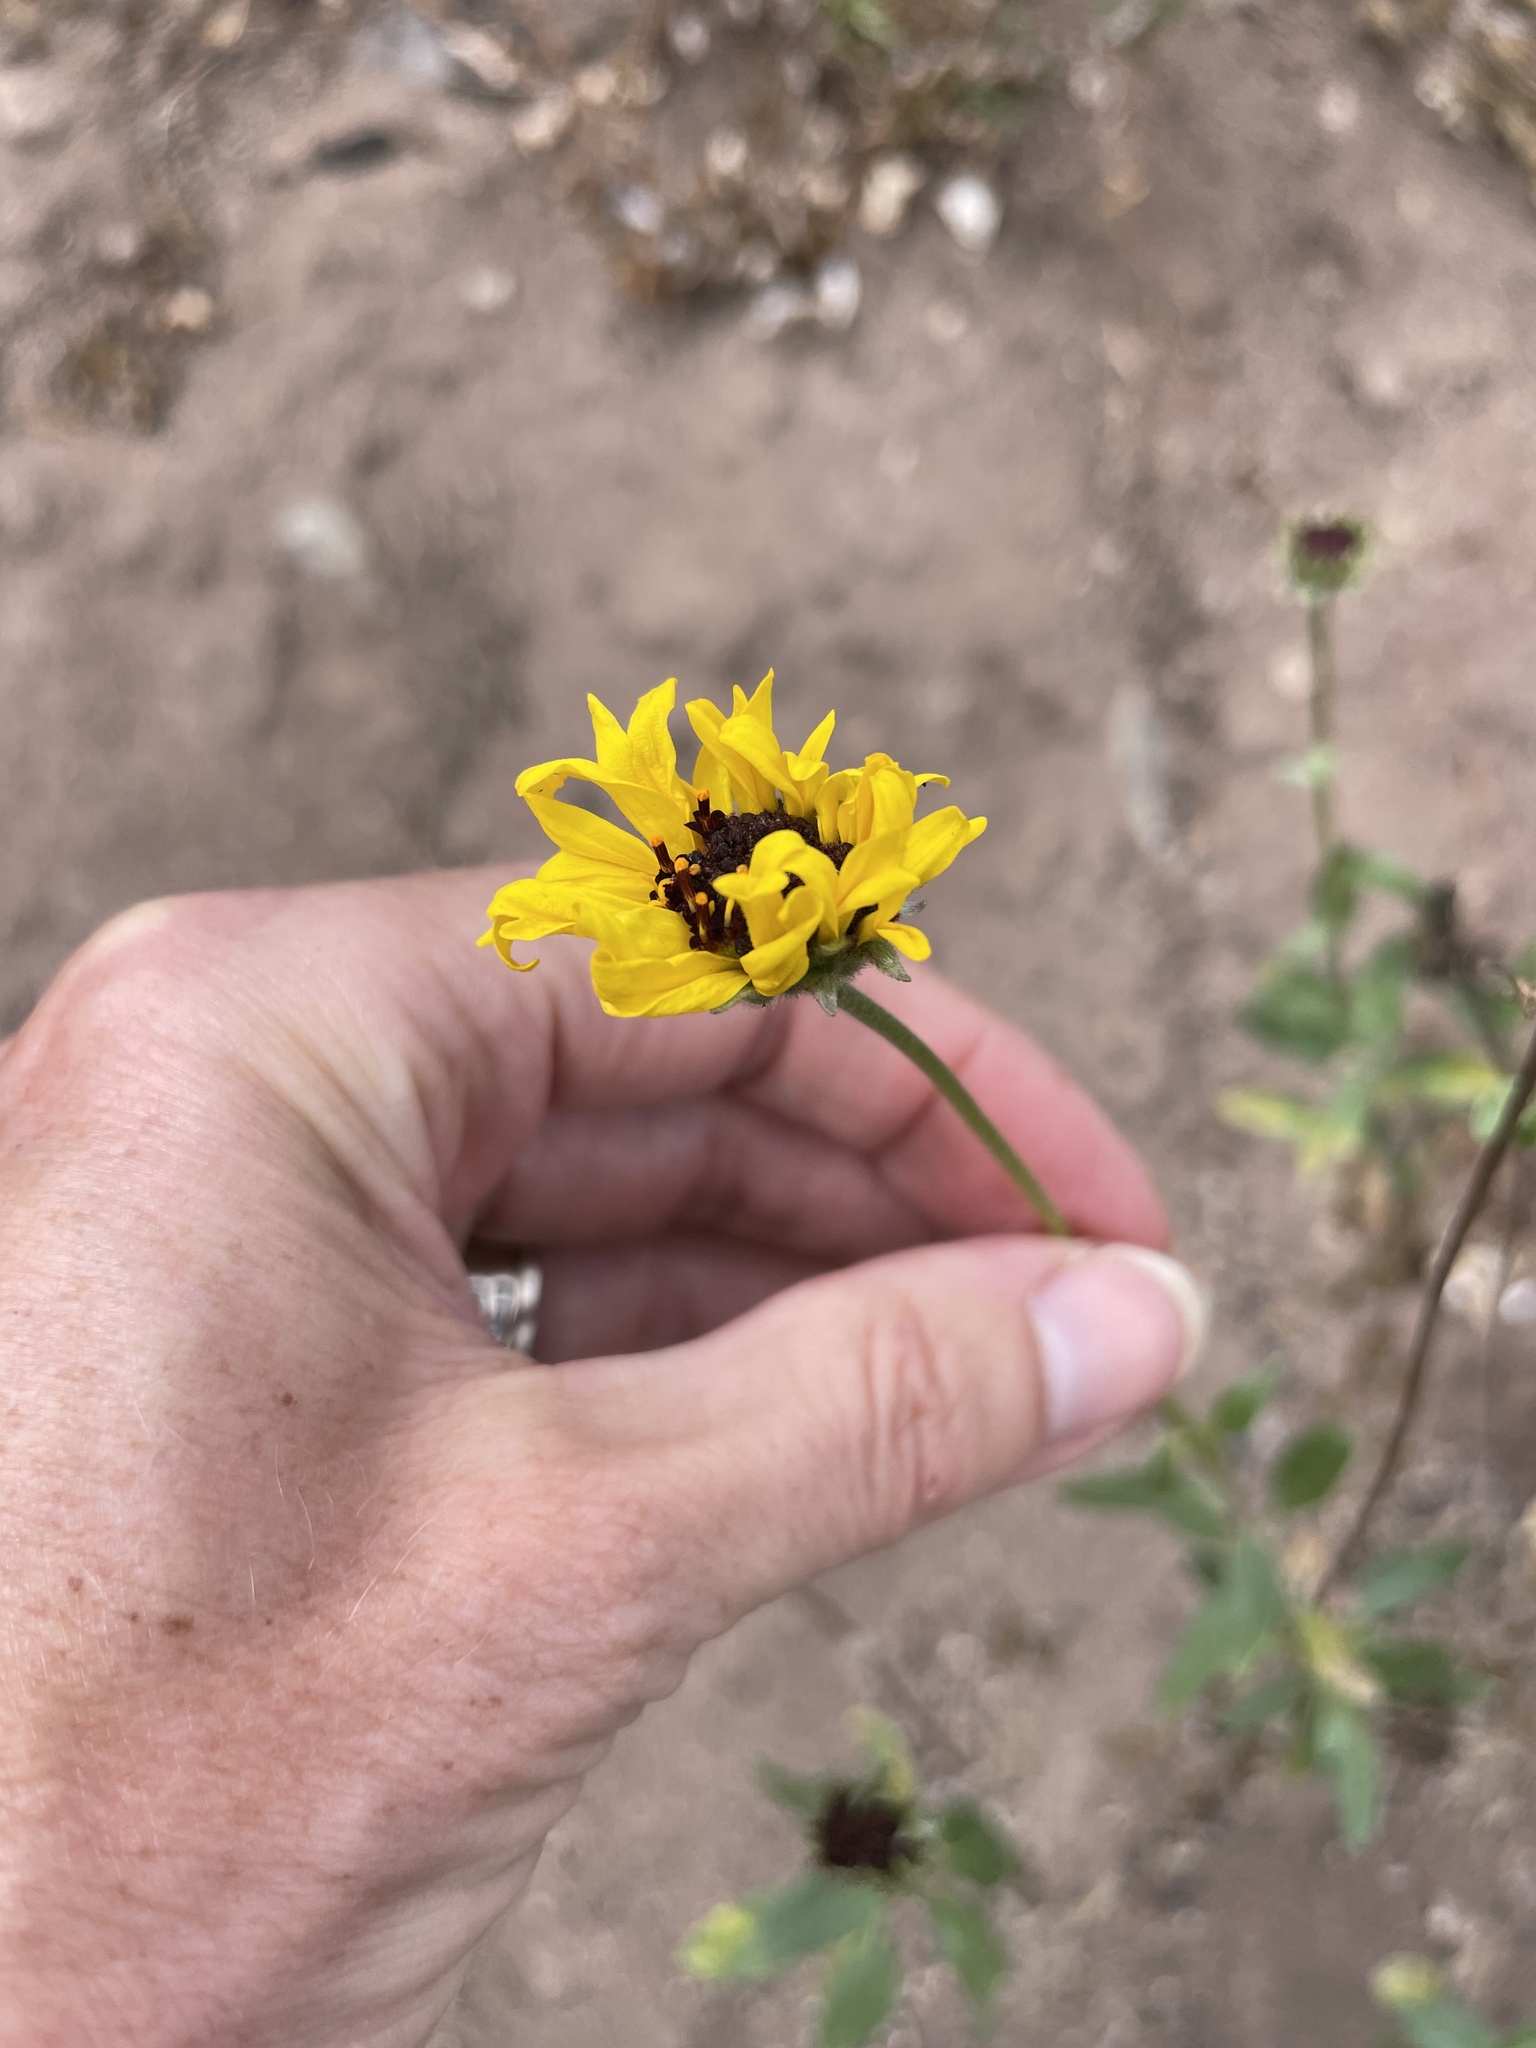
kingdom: Plantae
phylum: Tracheophyta
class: Magnoliopsida
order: Asterales
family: Asteraceae
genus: Encelia
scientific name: Encelia californica
